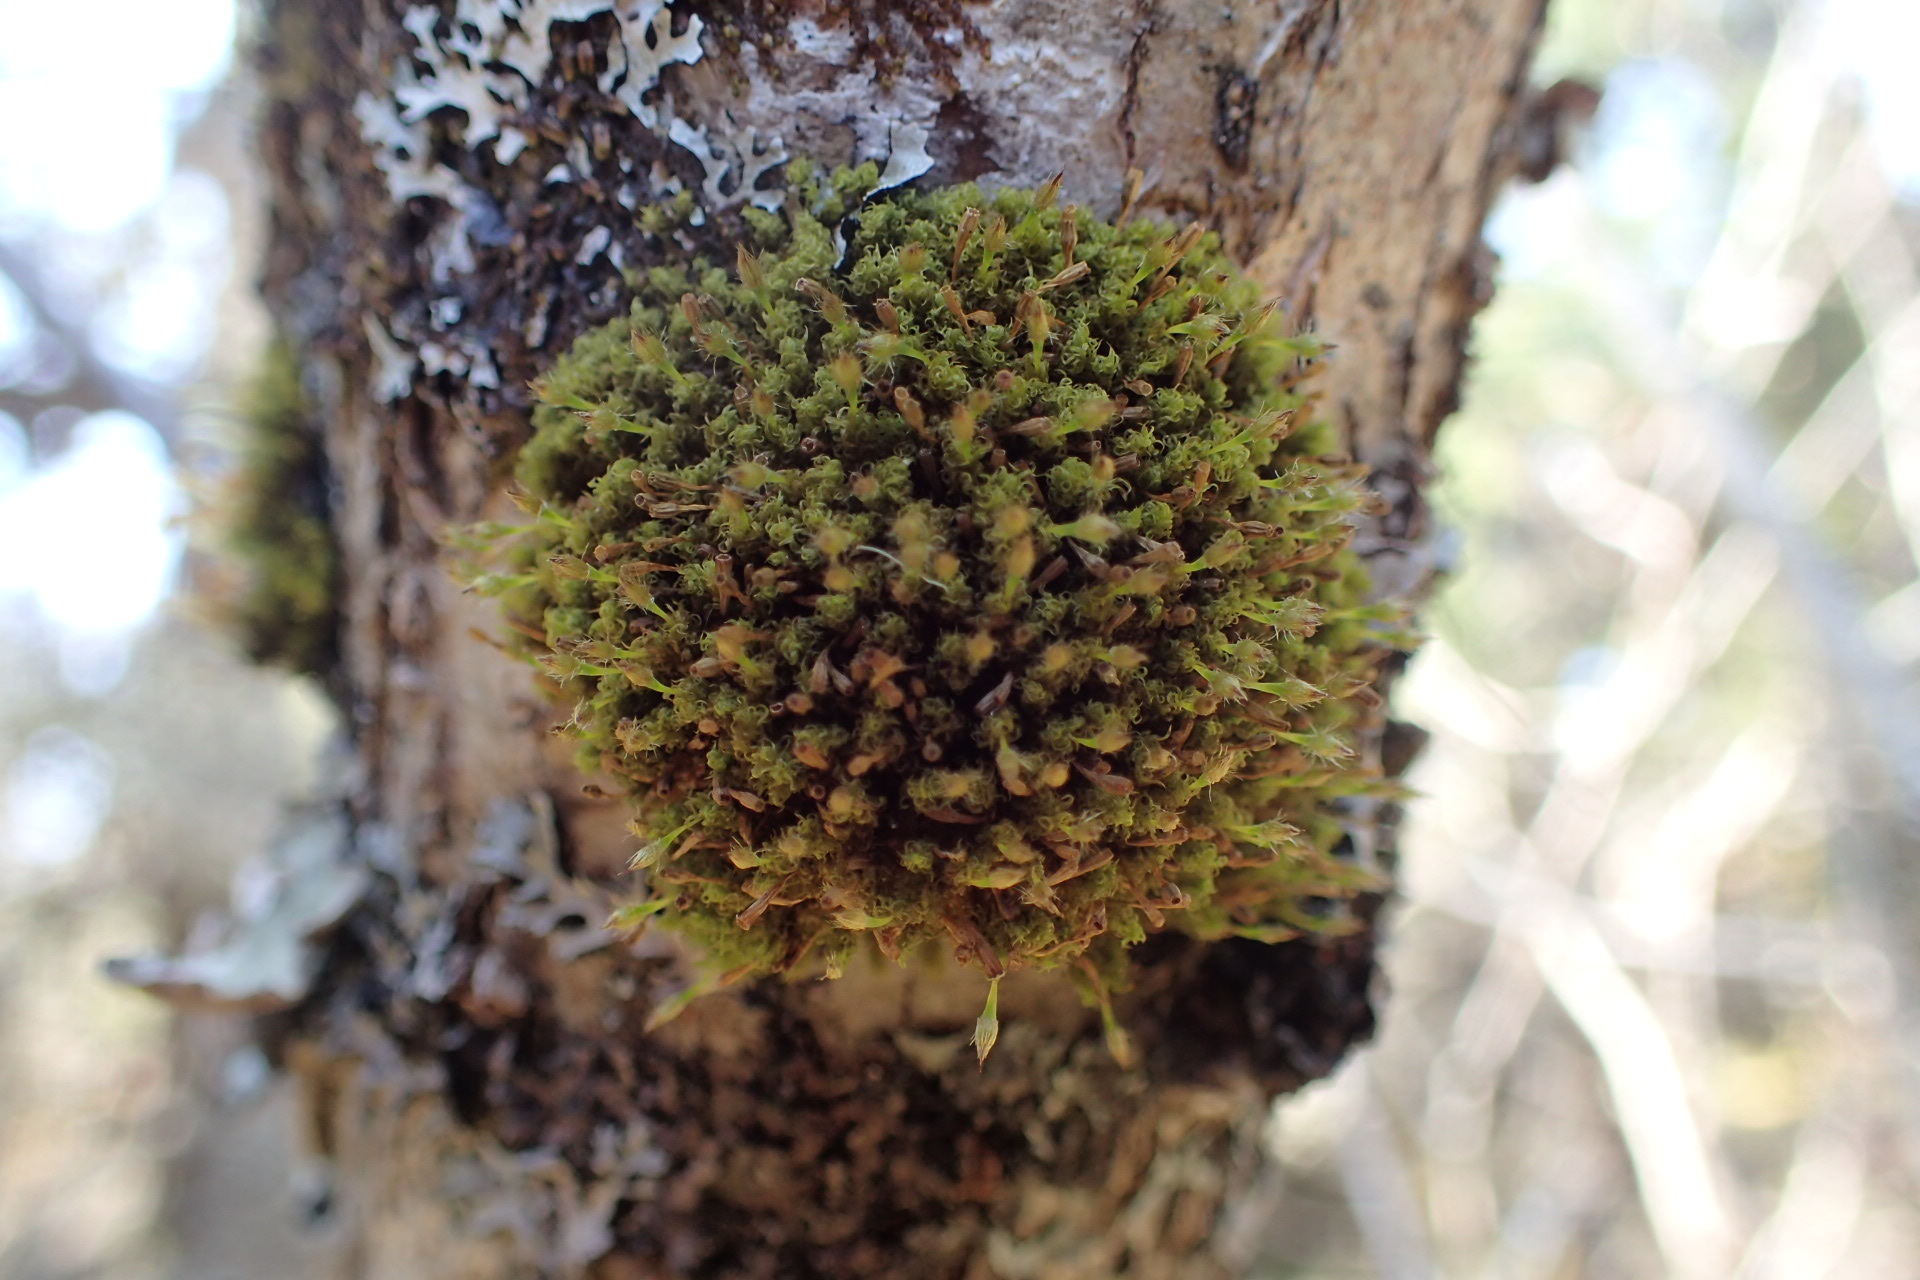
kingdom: Plantae
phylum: Bryophyta
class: Bryopsida
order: Orthotrichales
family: Orthotrichaceae
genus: Ulota
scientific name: Ulota crispa
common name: Crisped pincushion moss
